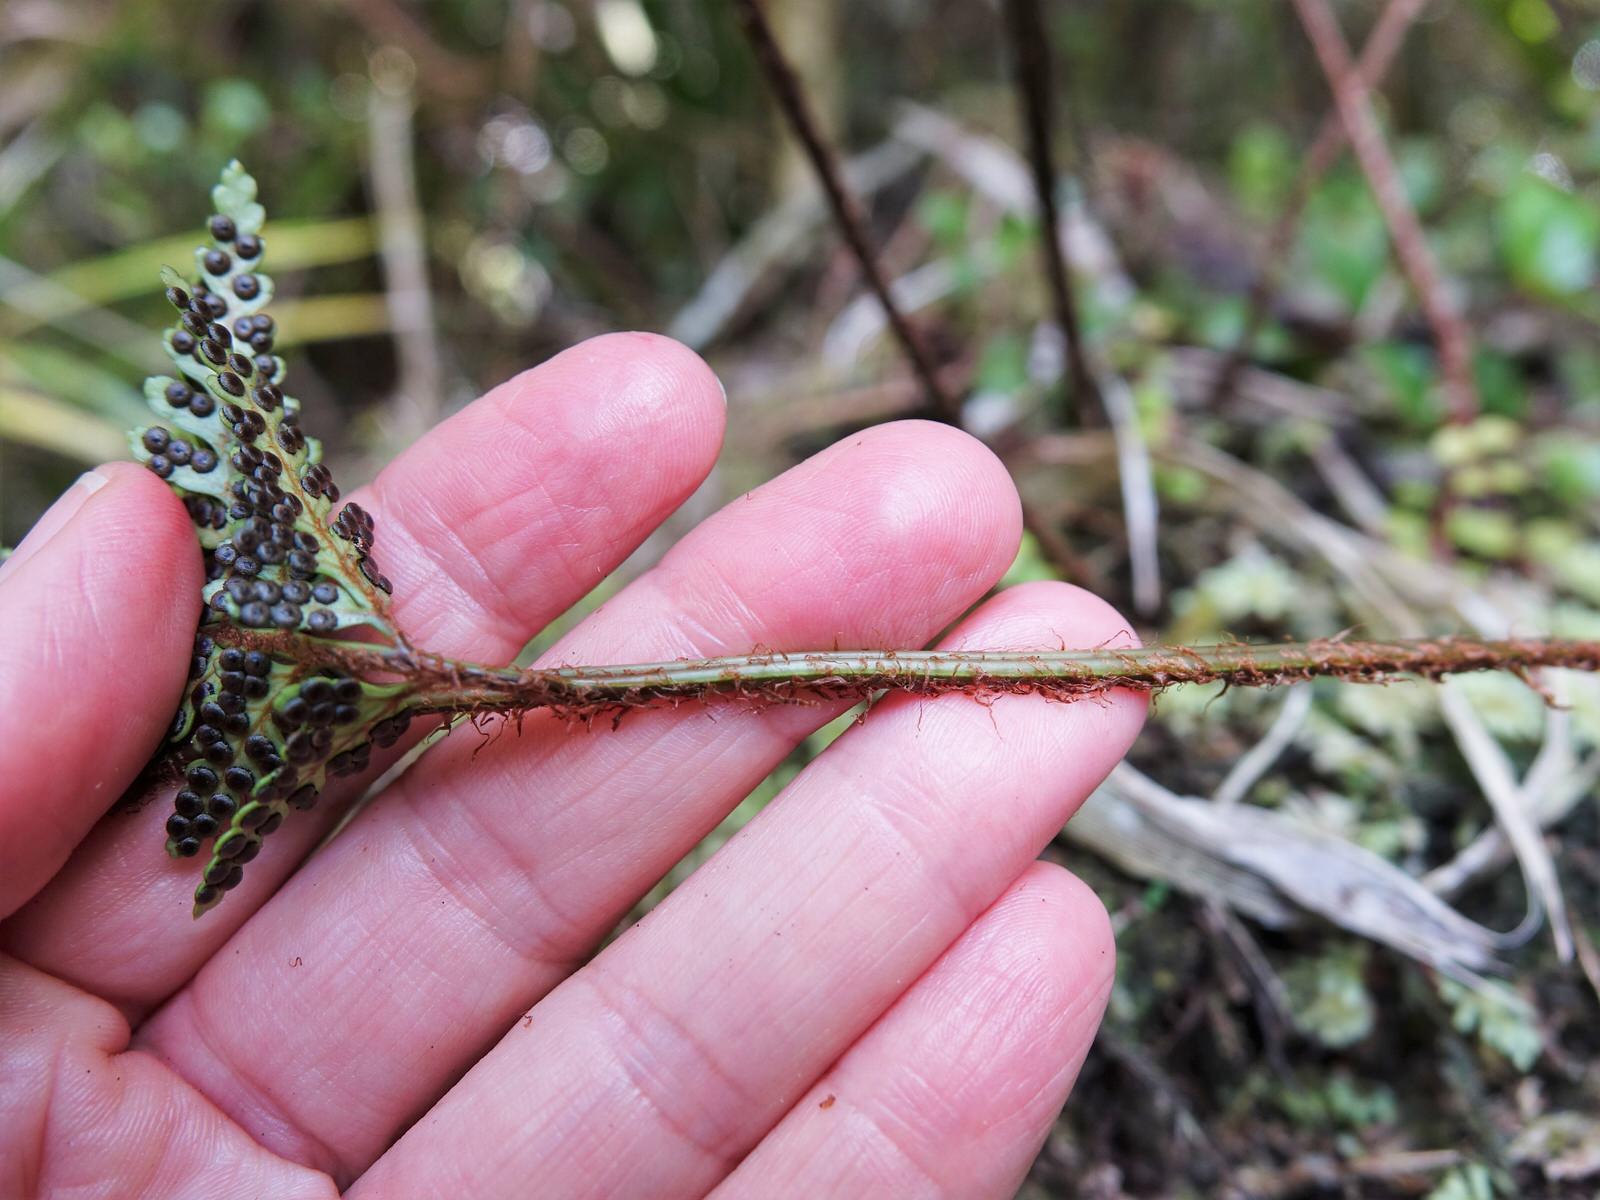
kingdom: Plantae
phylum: Tracheophyta
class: Polypodiopsida
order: Polypodiales
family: Dryopteridaceae
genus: Rumohra
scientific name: Rumohra adiantiformis
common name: Leather fern
